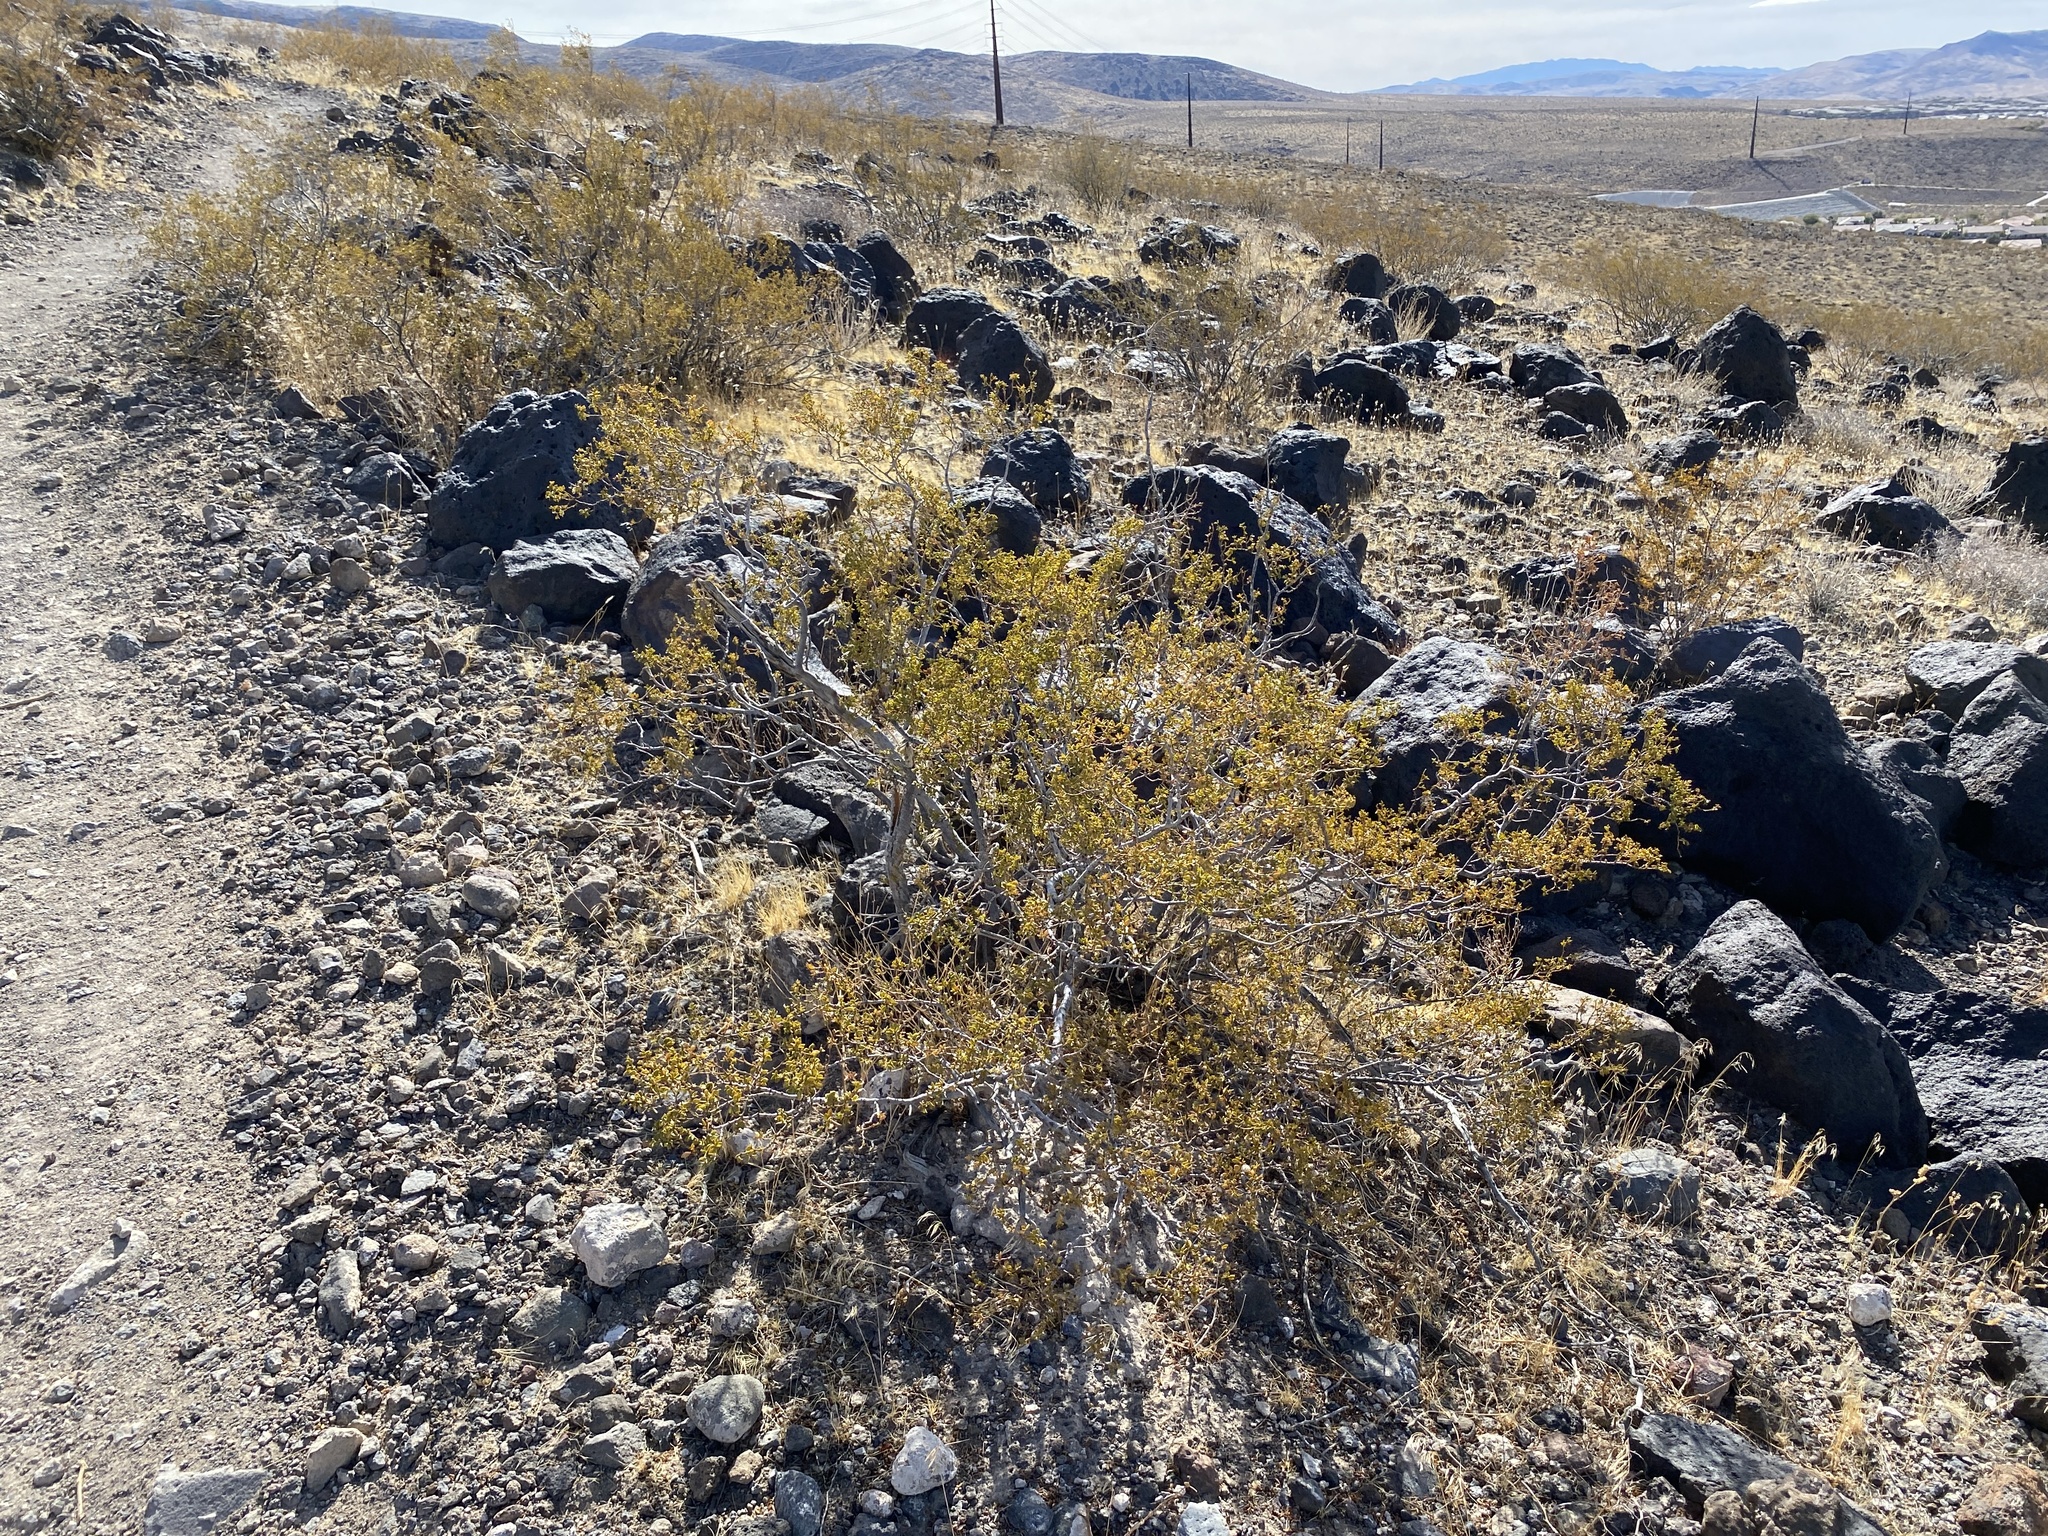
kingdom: Plantae
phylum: Tracheophyta
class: Magnoliopsida
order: Zygophyllales
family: Zygophyllaceae
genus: Larrea
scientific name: Larrea tridentata
